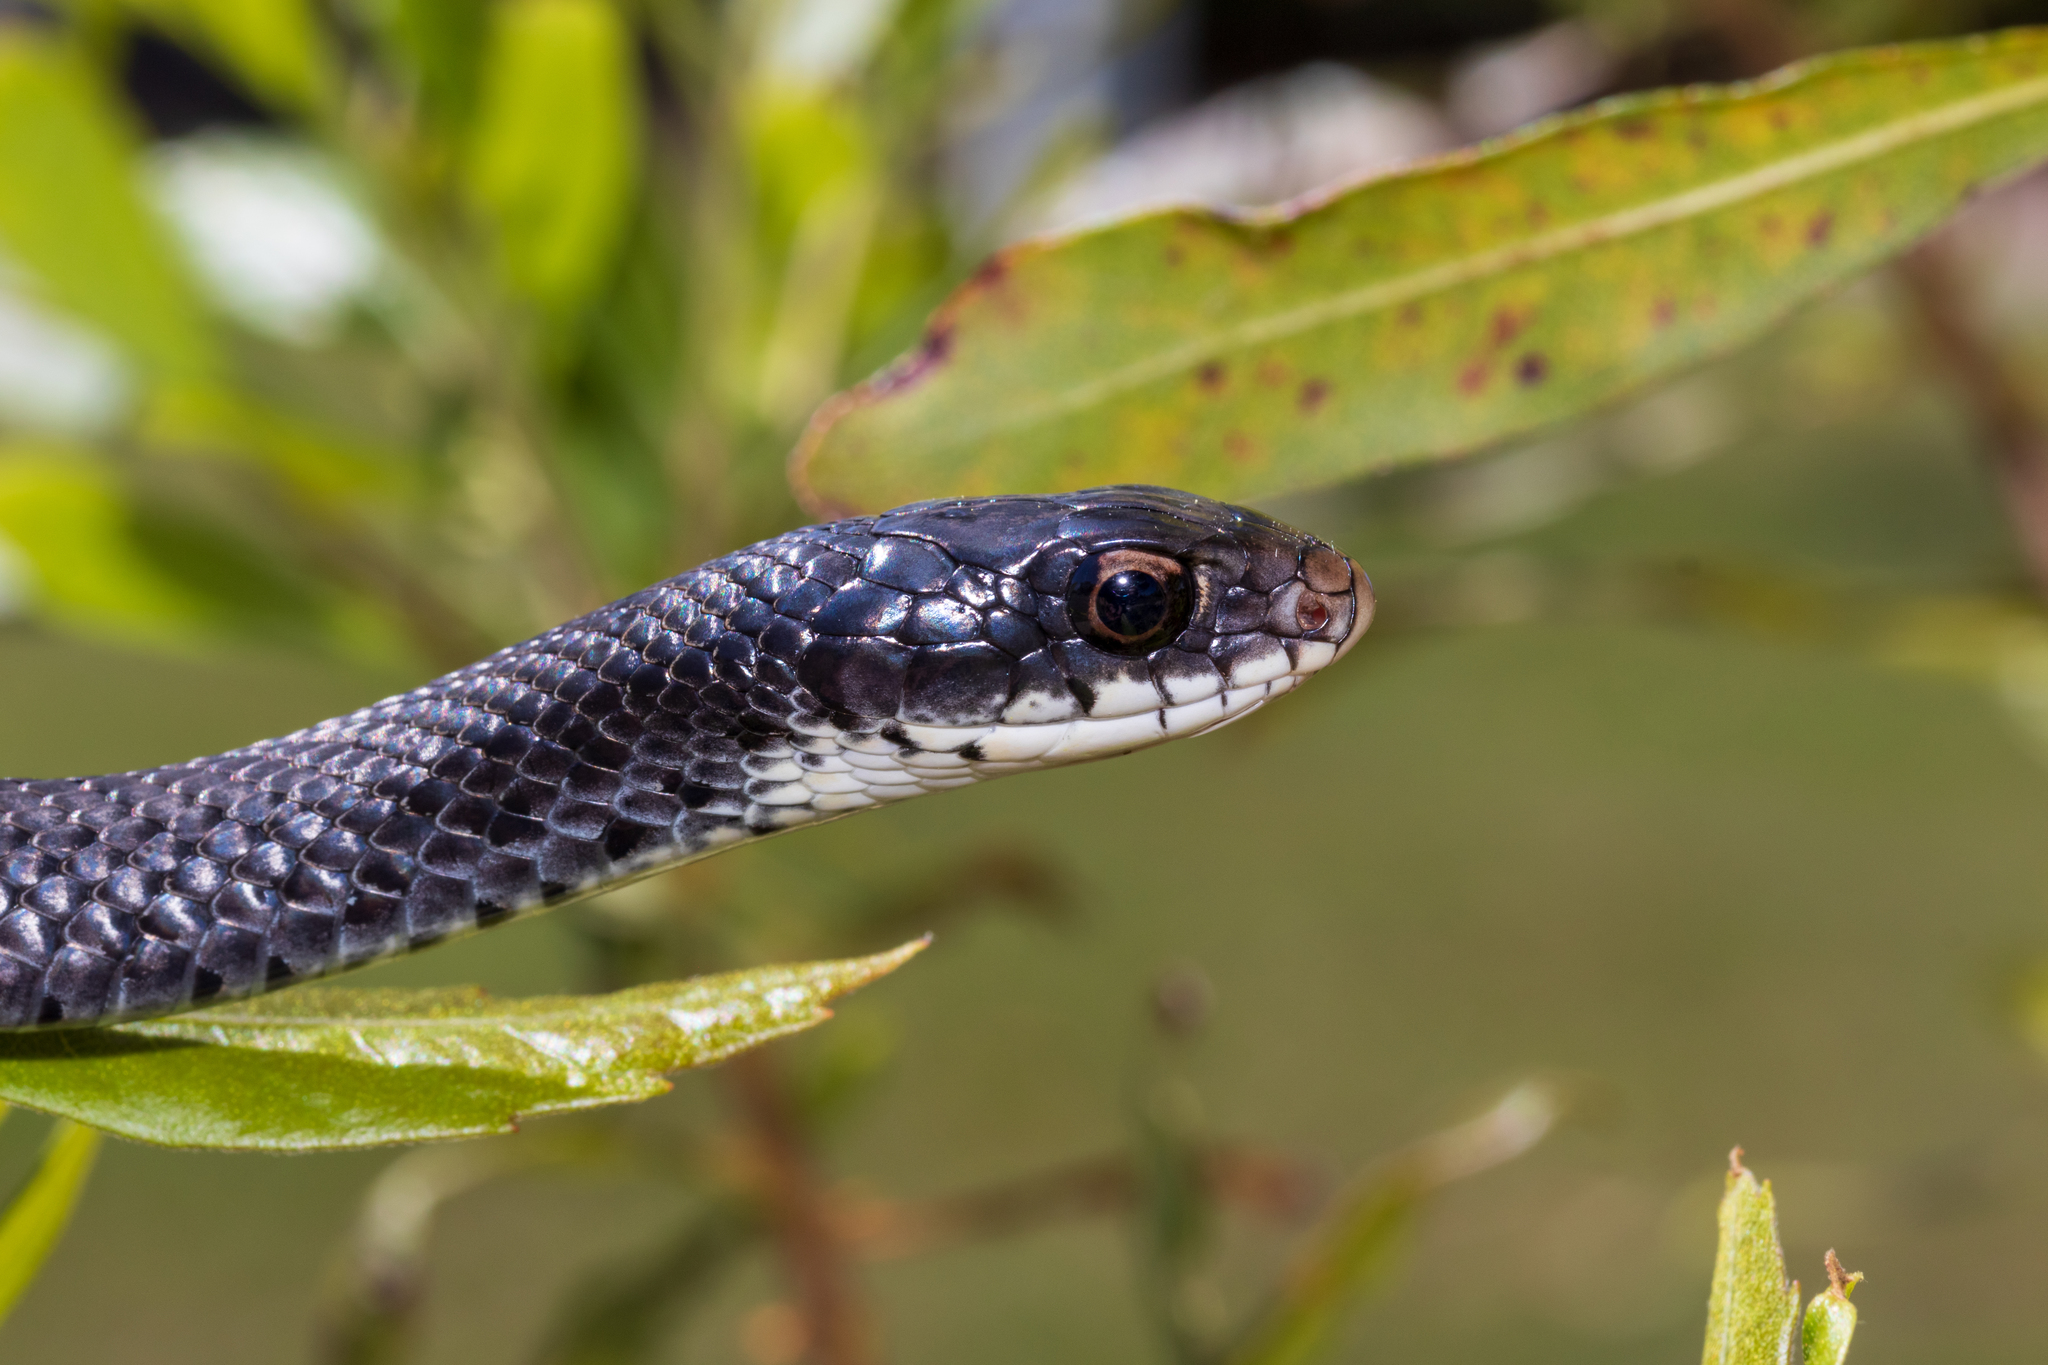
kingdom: Animalia
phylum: Chordata
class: Squamata
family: Colubridae
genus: Coluber
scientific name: Coluber constrictor
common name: Eastern racer
